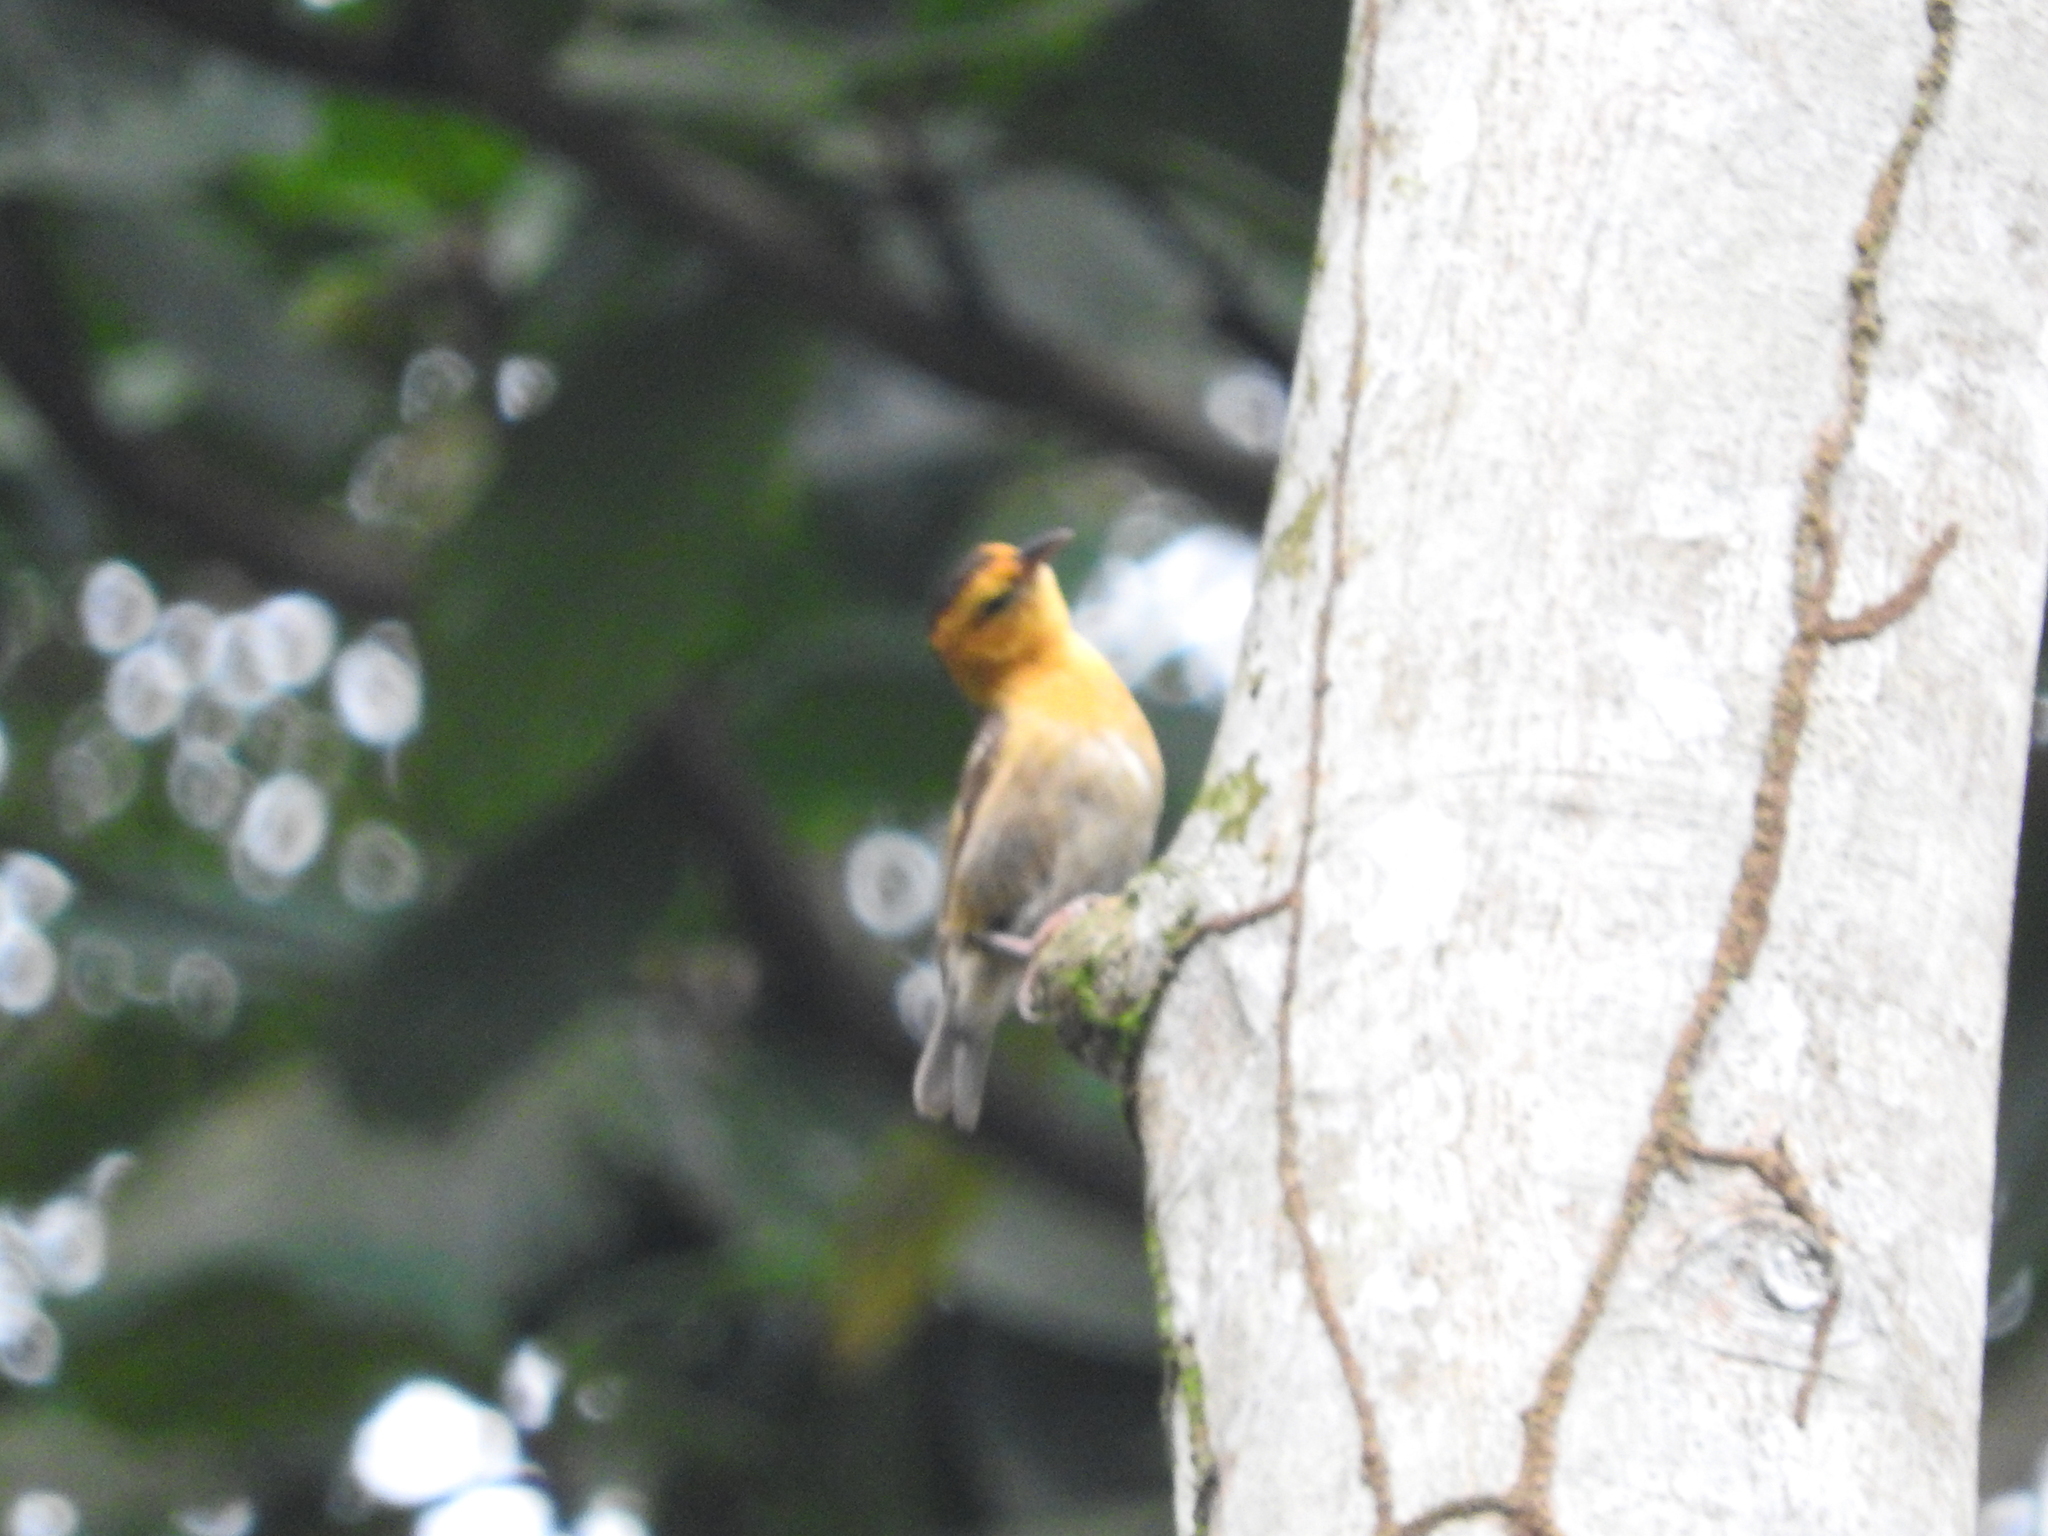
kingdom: Animalia
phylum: Chordata
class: Aves
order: Passeriformes
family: Ploceidae
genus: Ploceus
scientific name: Ploceus sanctithomae
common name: Sao tome weaver
